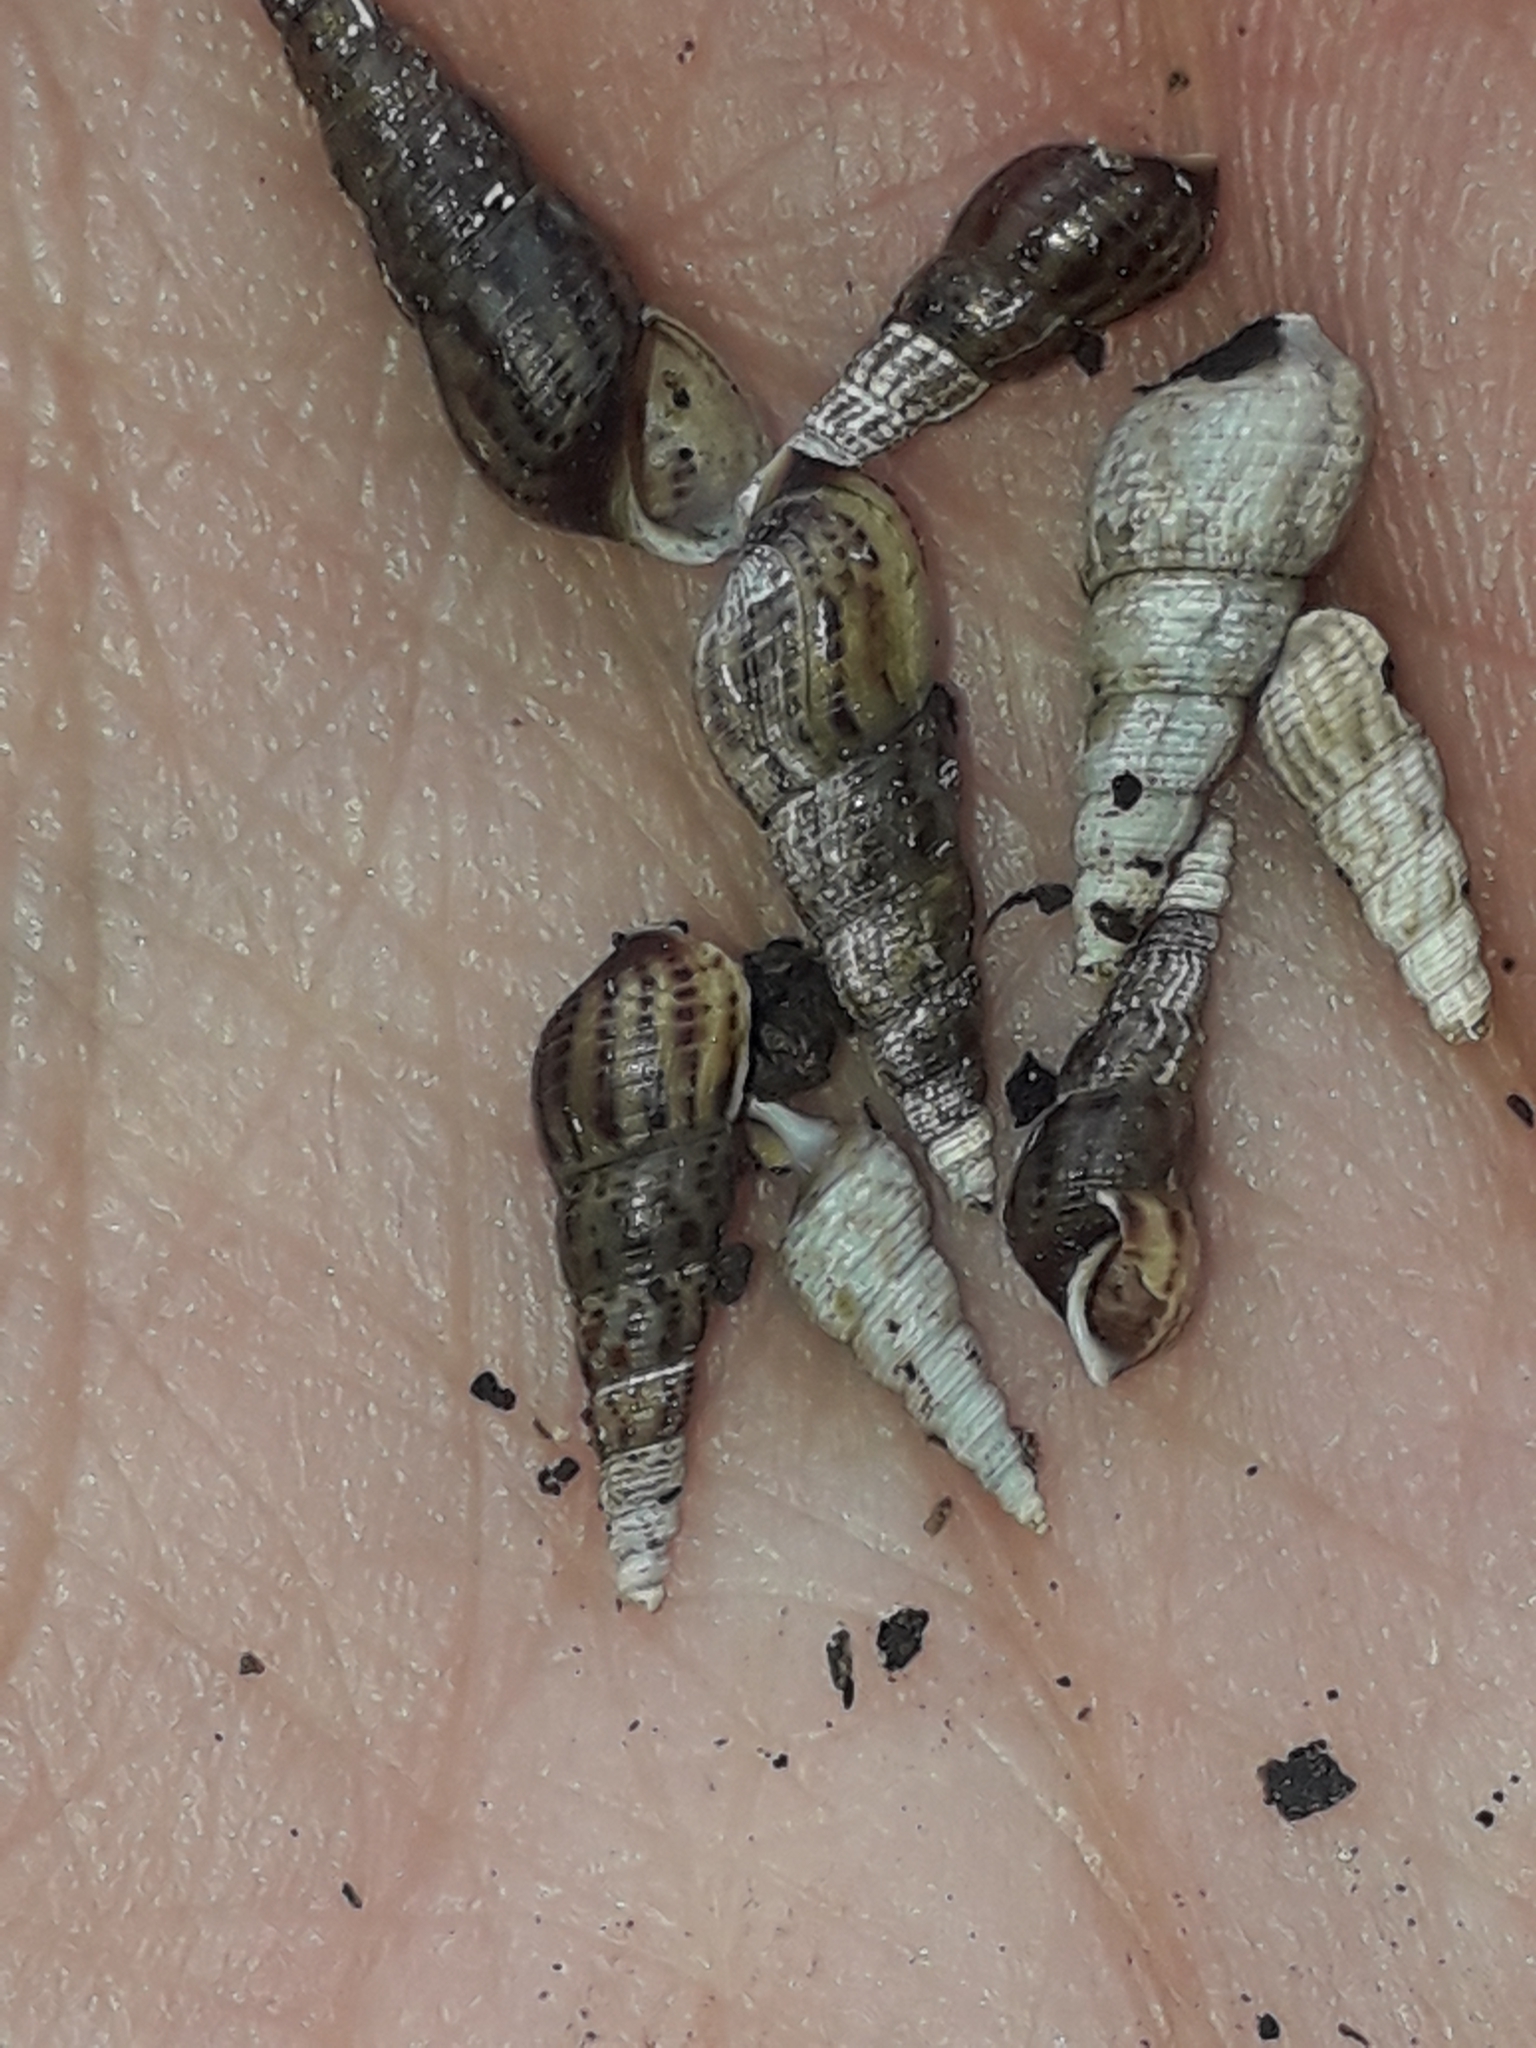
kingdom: Animalia
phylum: Mollusca
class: Gastropoda
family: Thiaridae
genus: Melanoides
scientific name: Melanoides tuberculata
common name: Red-rim melania
